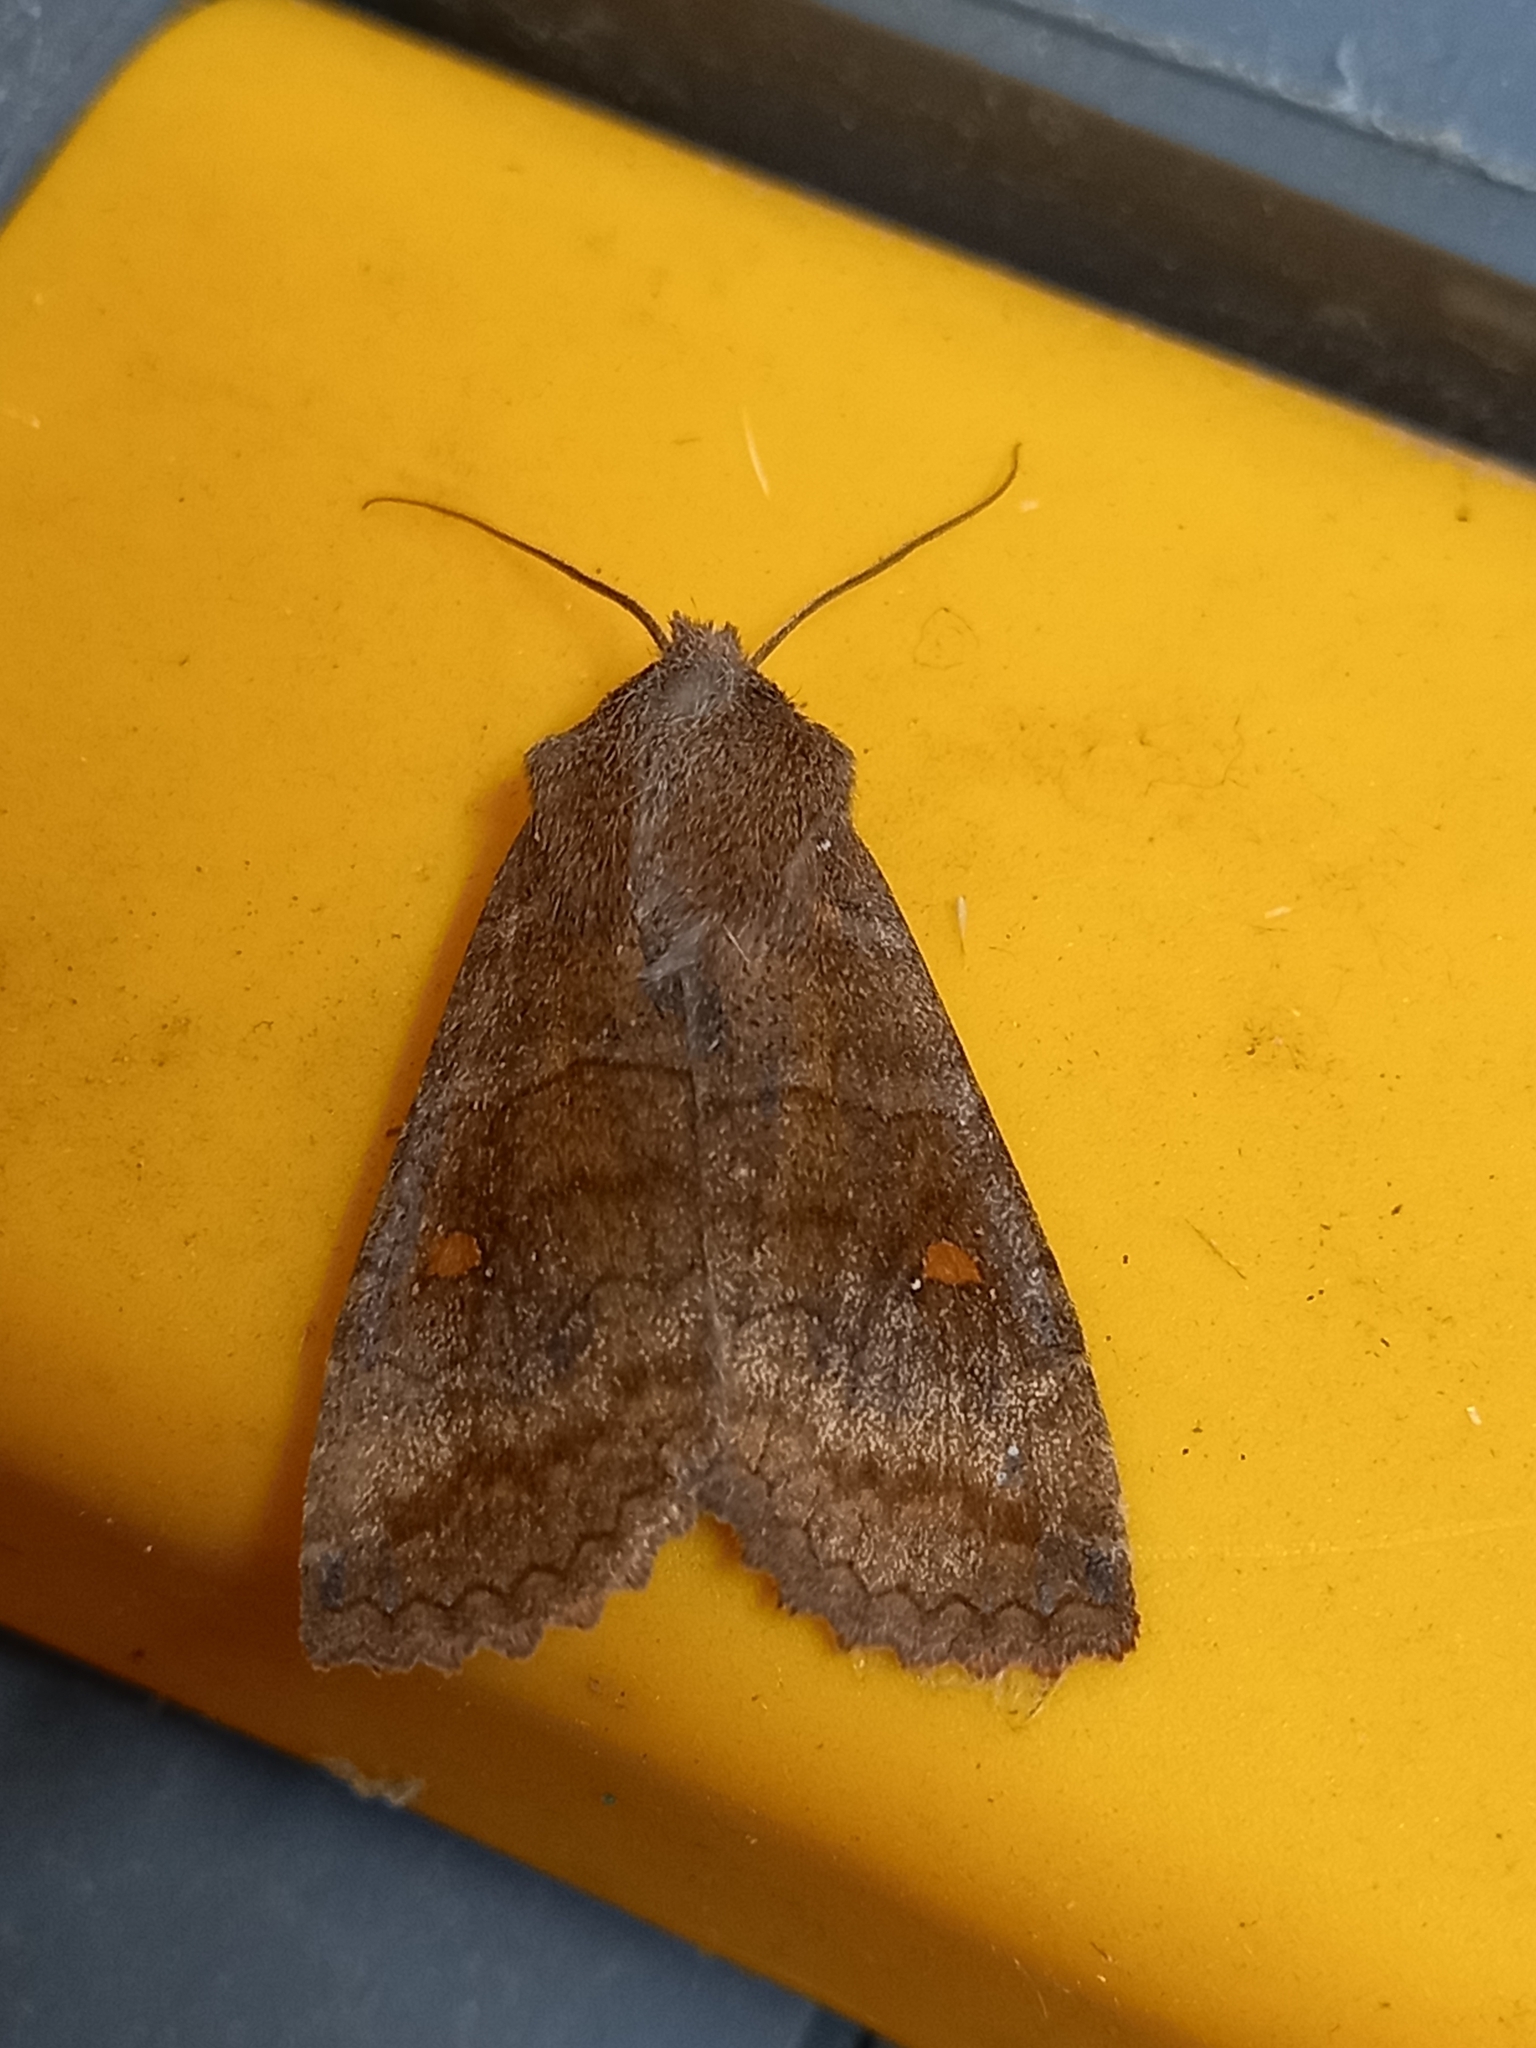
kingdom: Animalia
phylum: Arthropoda
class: Insecta
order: Lepidoptera
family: Noctuidae
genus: Eupsilia
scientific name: Eupsilia transversa
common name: Satellite
